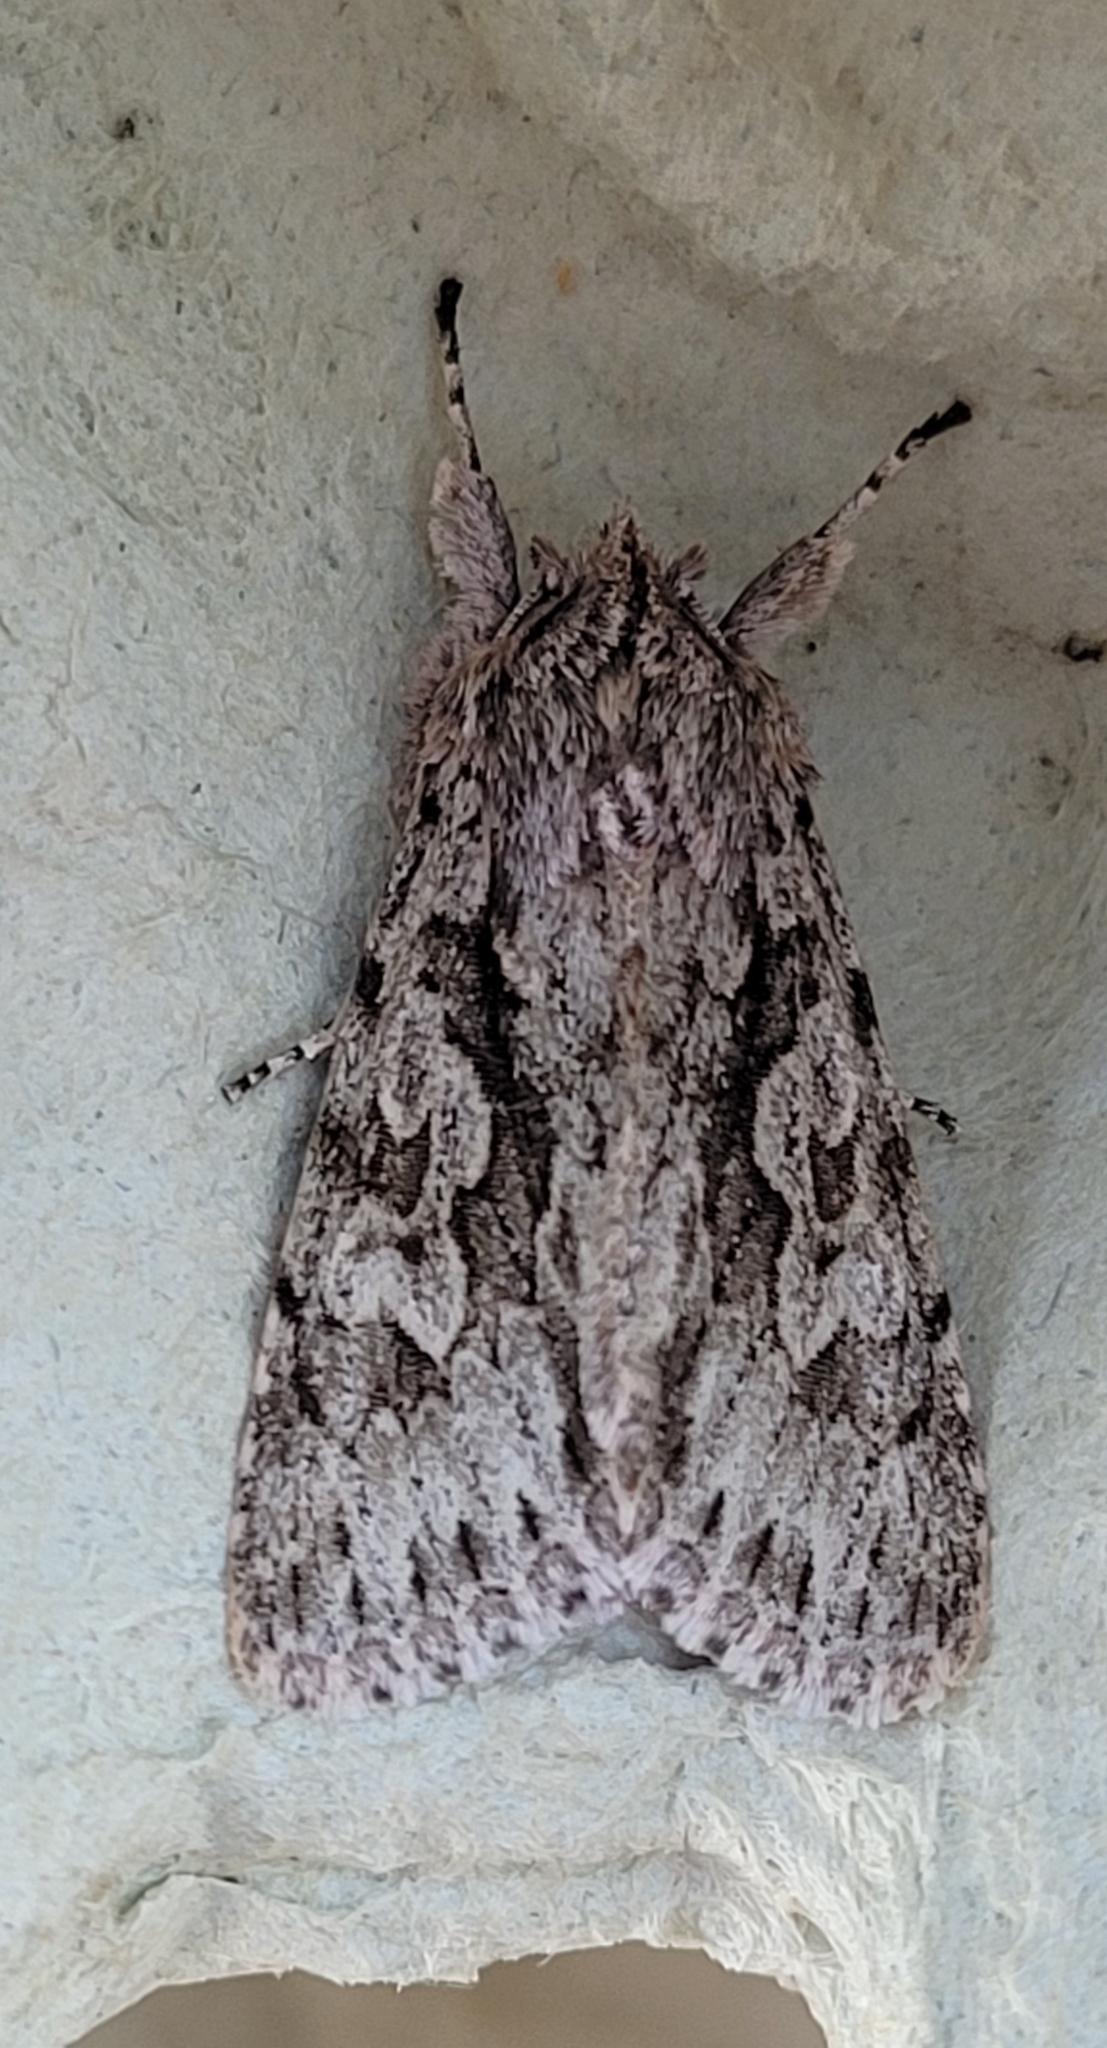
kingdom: Animalia
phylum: Arthropoda
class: Insecta
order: Lepidoptera
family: Noctuidae
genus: Xylocampa
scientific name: Xylocampa areola
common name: Early grey
